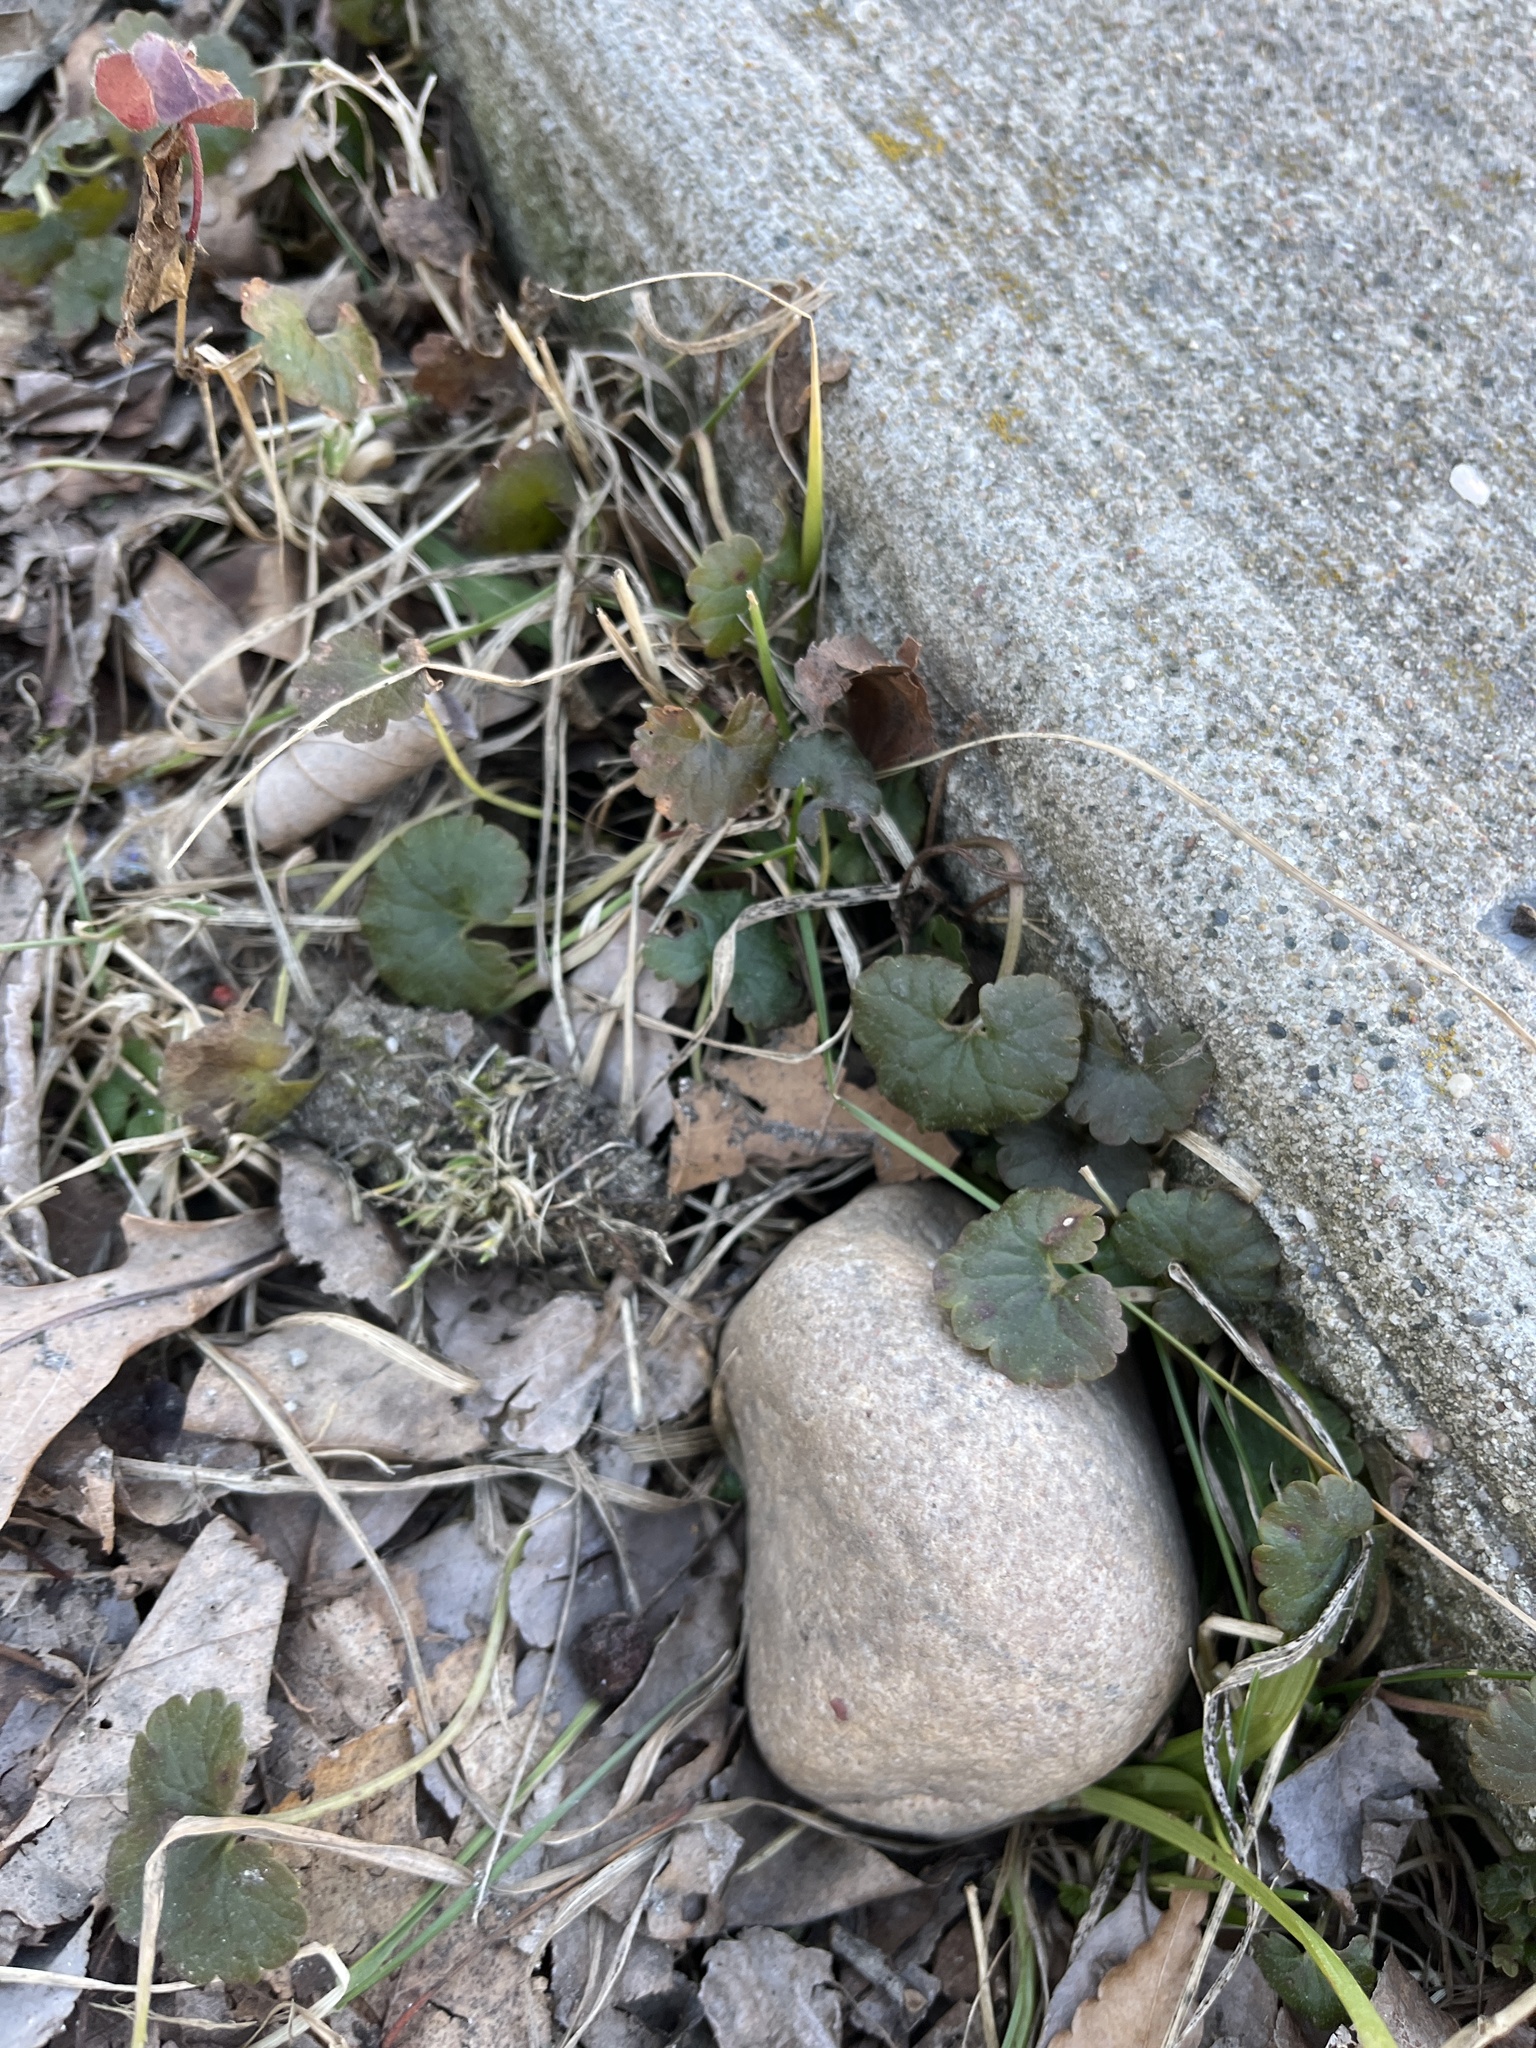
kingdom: Plantae
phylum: Tracheophyta
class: Magnoliopsida
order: Lamiales
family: Lamiaceae
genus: Glechoma
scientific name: Glechoma hederacea
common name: Ground ivy
